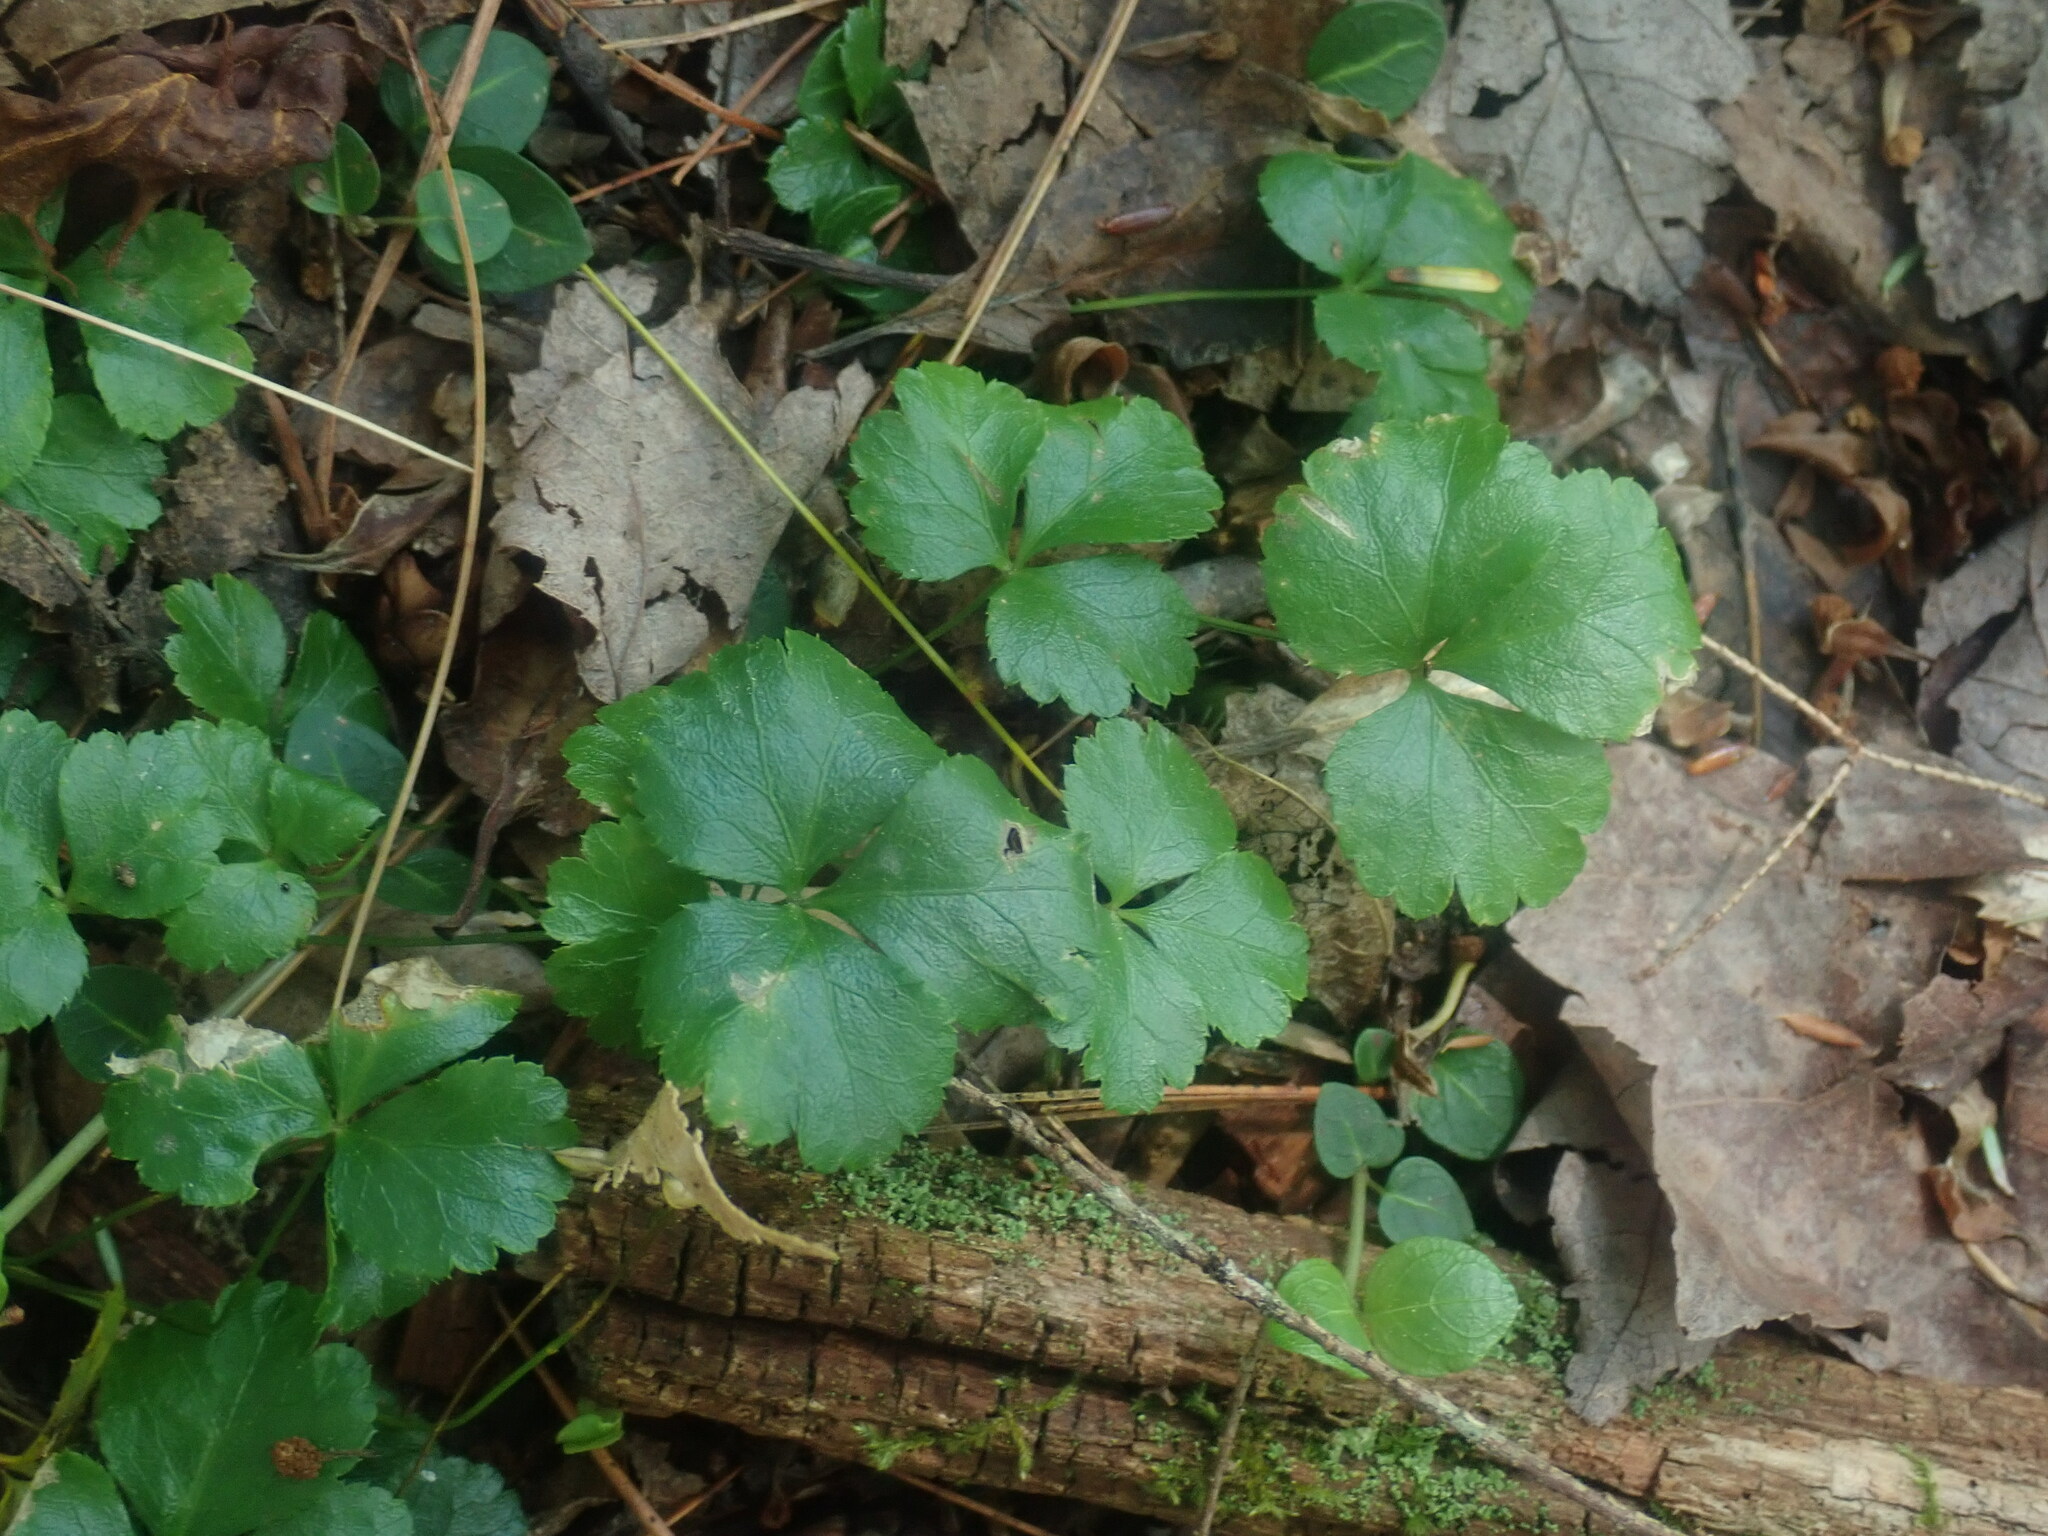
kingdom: Plantae
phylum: Tracheophyta
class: Magnoliopsida
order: Ranunculales
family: Ranunculaceae
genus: Coptis
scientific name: Coptis trifolia
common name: Canker-root
